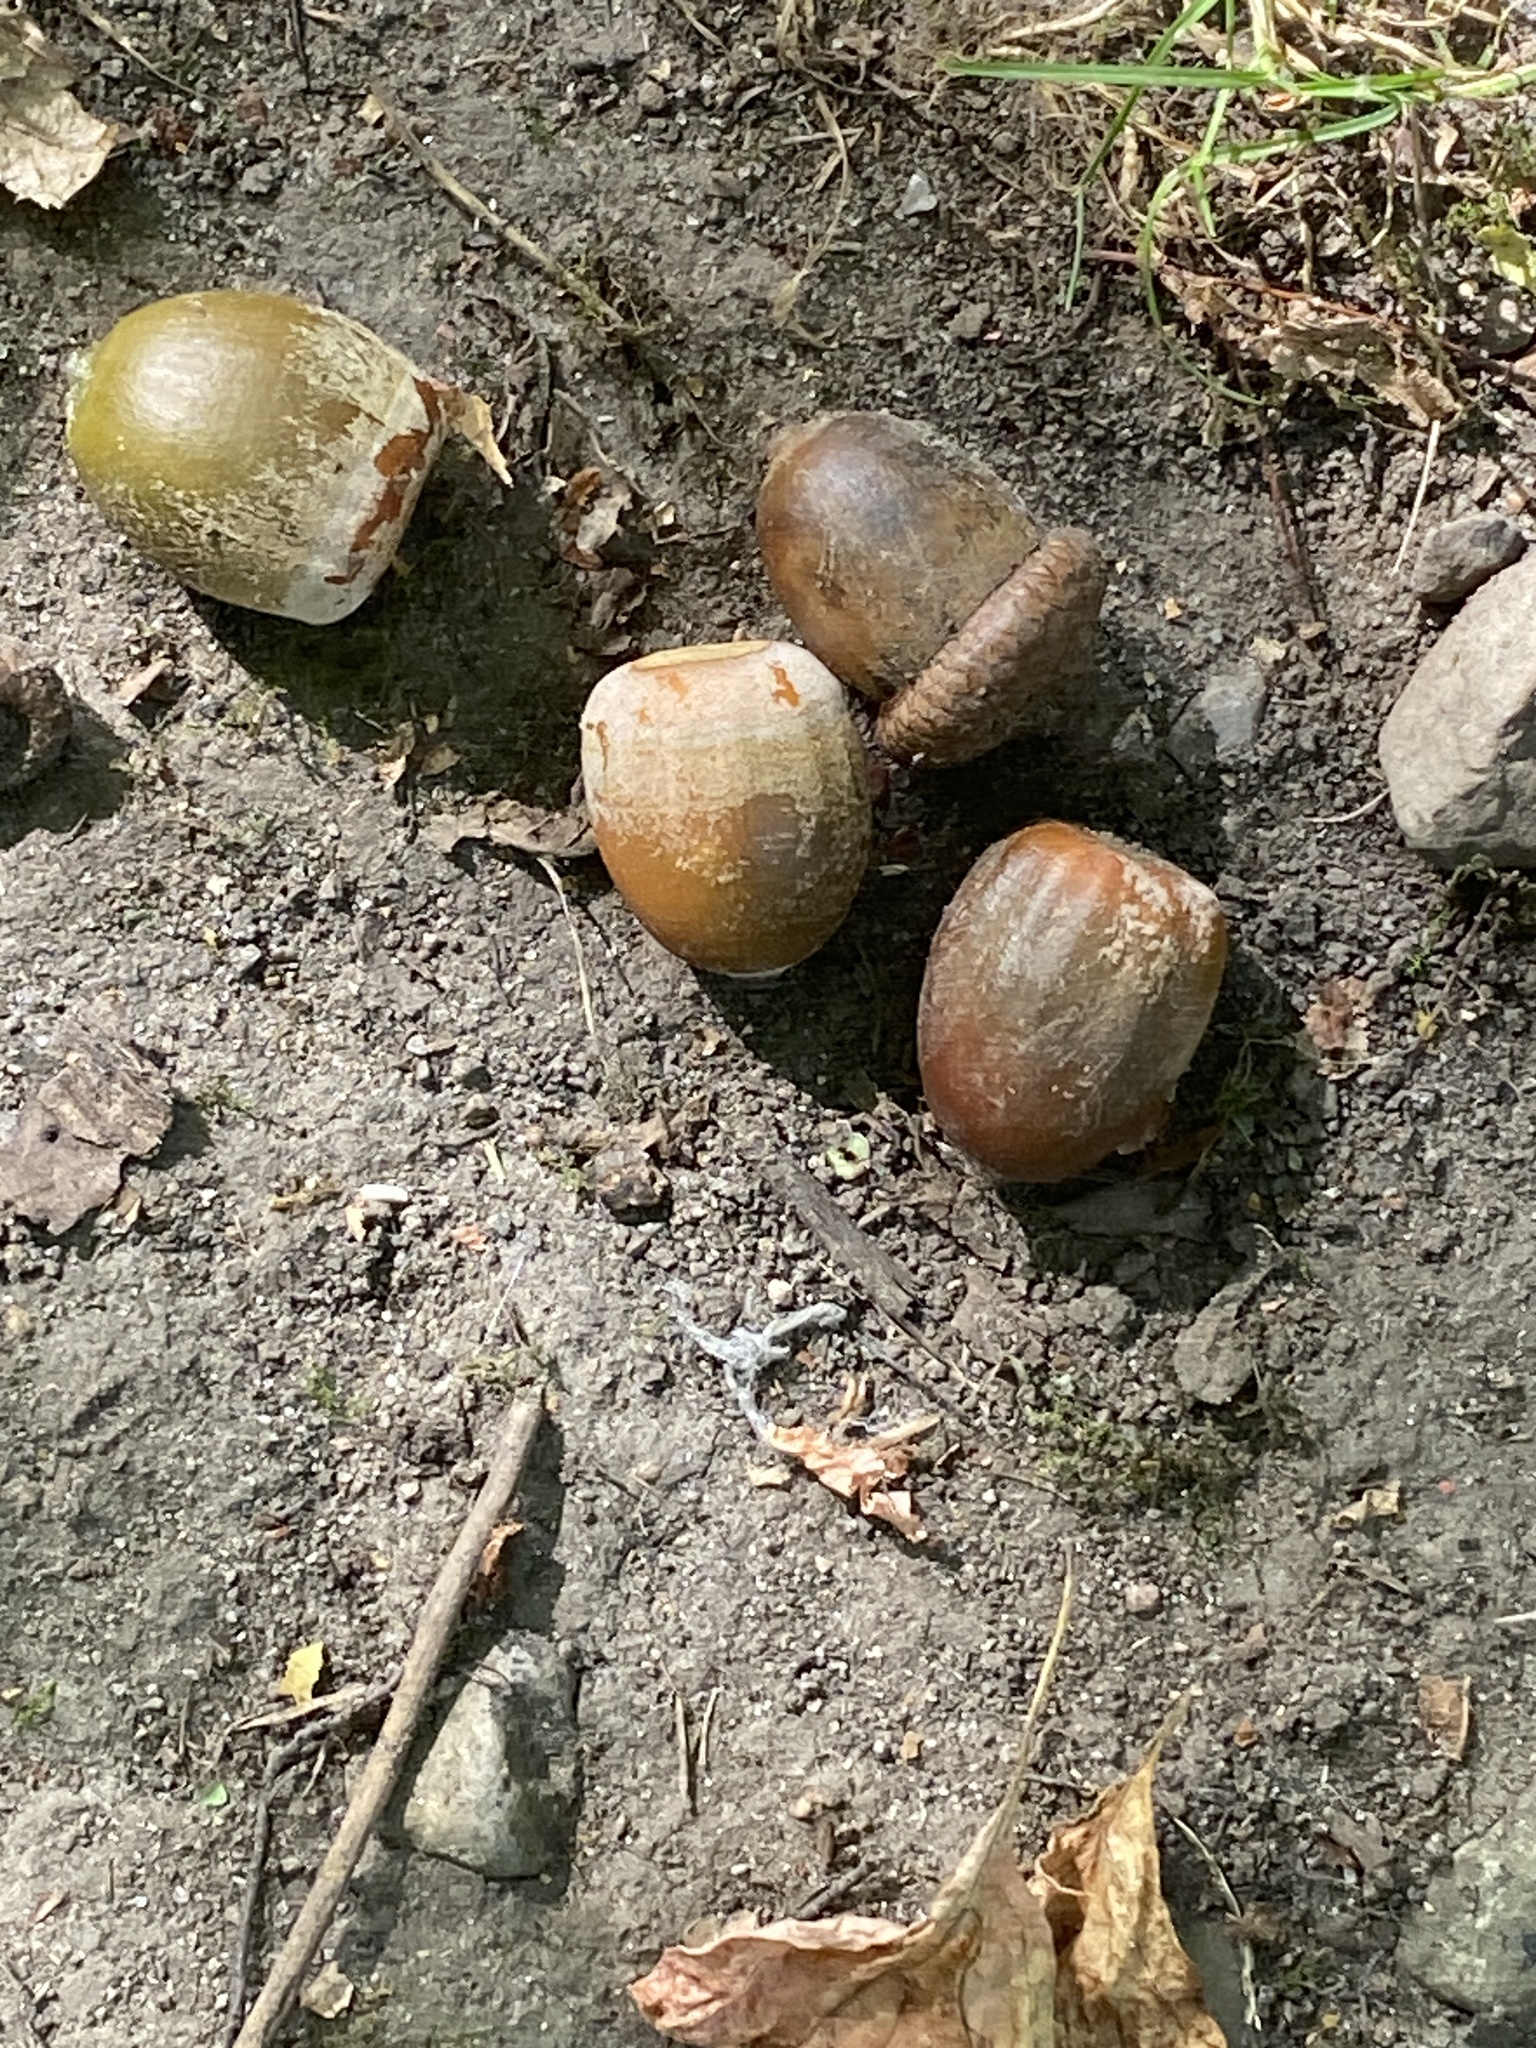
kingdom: Plantae
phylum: Tracheophyta
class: Magnoliopsida
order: Fagales
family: Fagaceae
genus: Quercus
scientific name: Quercus rubra
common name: Red oak
